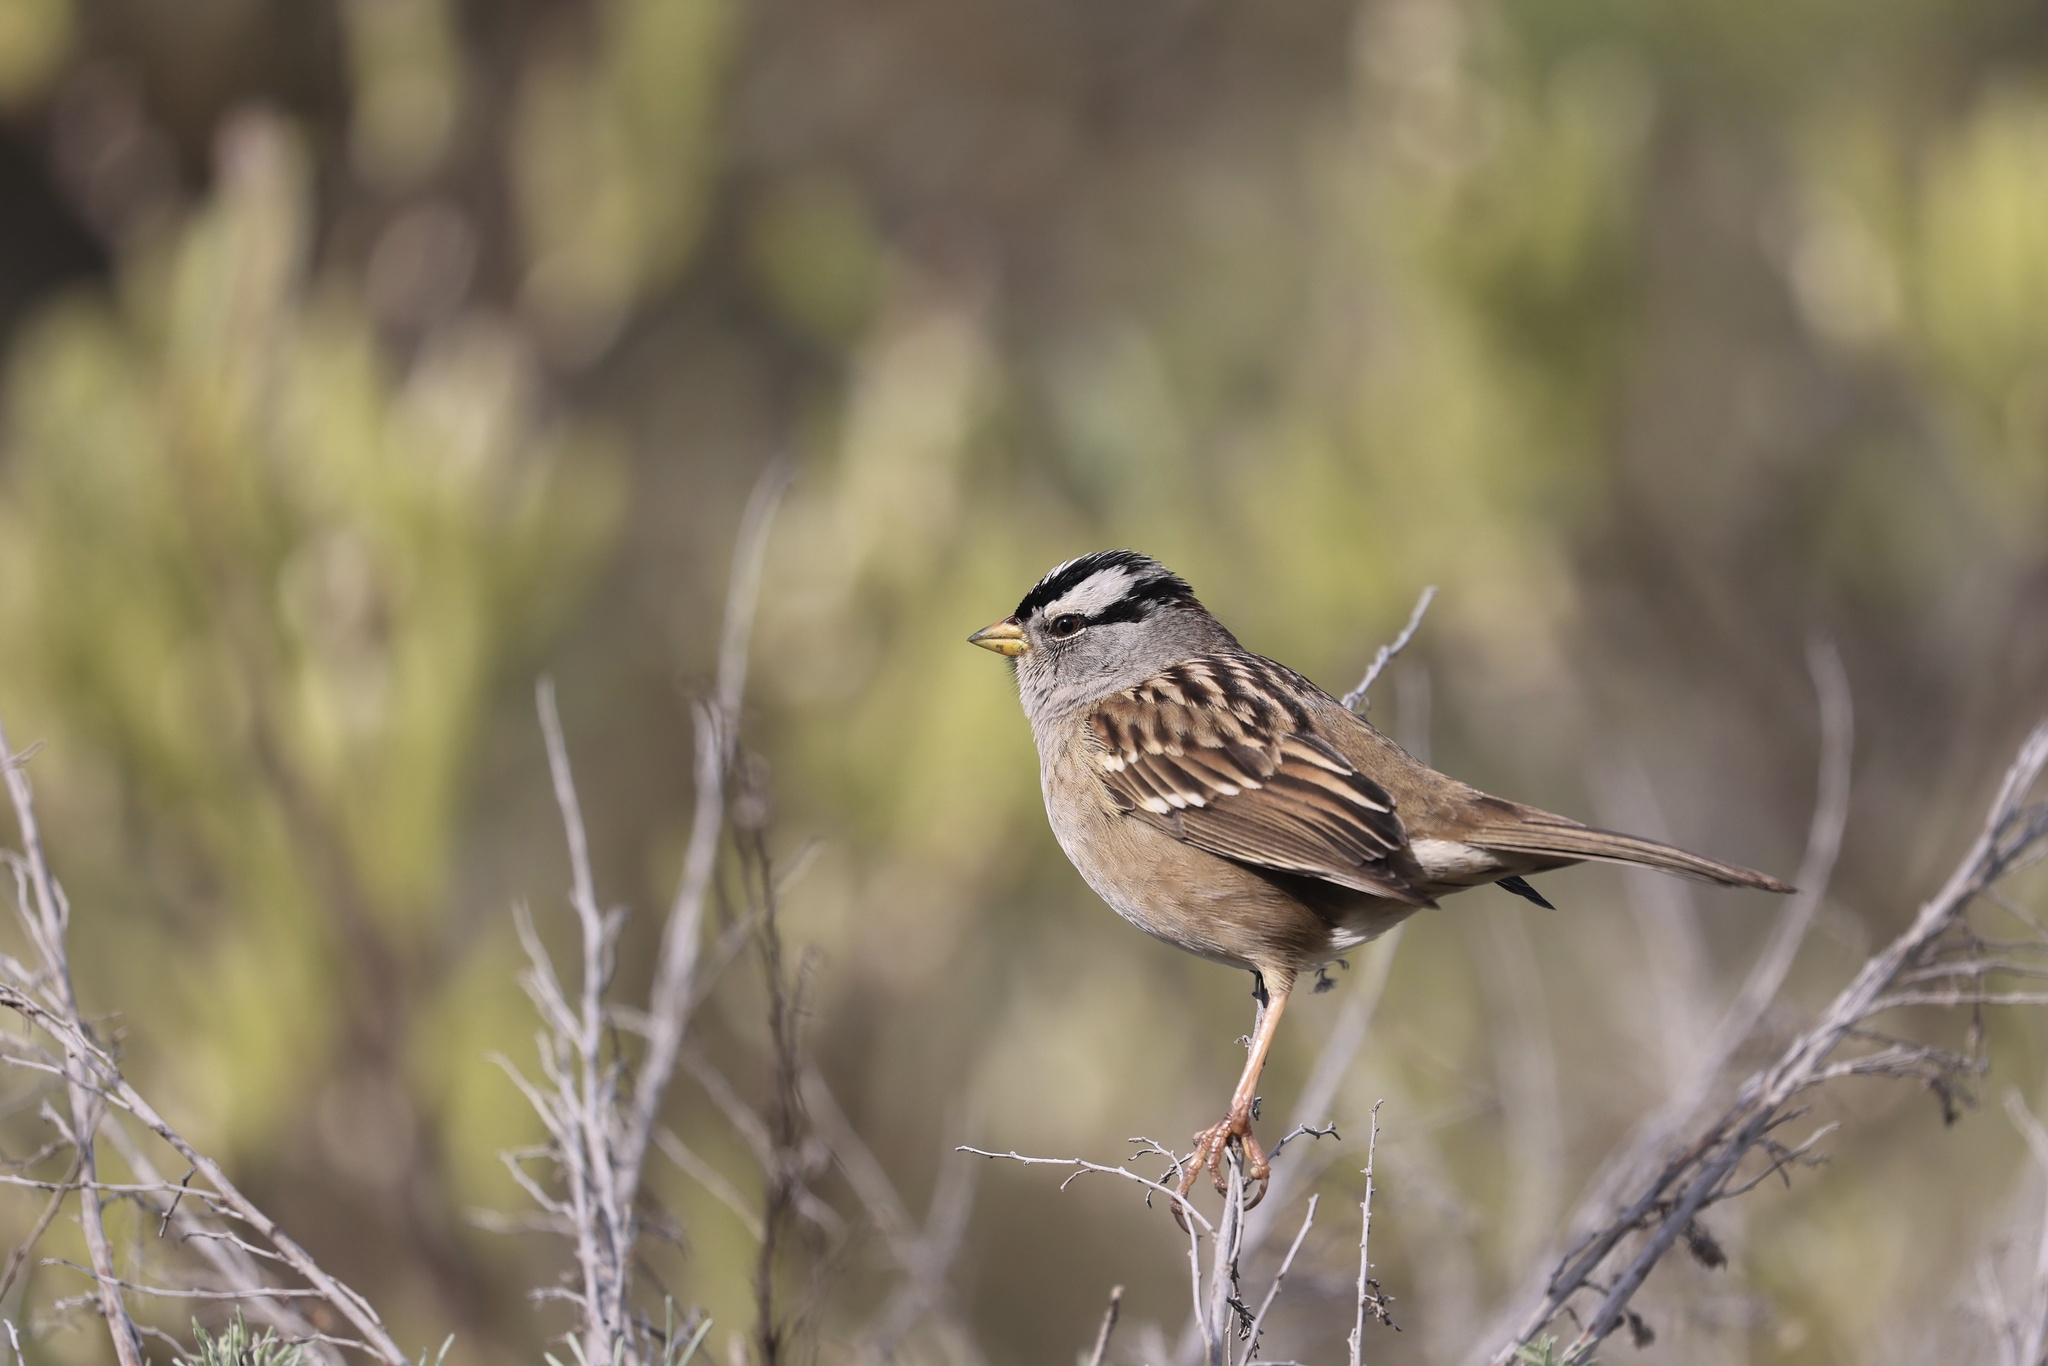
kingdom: Animalia
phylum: Chordata
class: Aves
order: Passeriformes
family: Passerellidae
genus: Zonotrichia
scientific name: Zonotrichia leucophrys
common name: White-crowned sparrow
